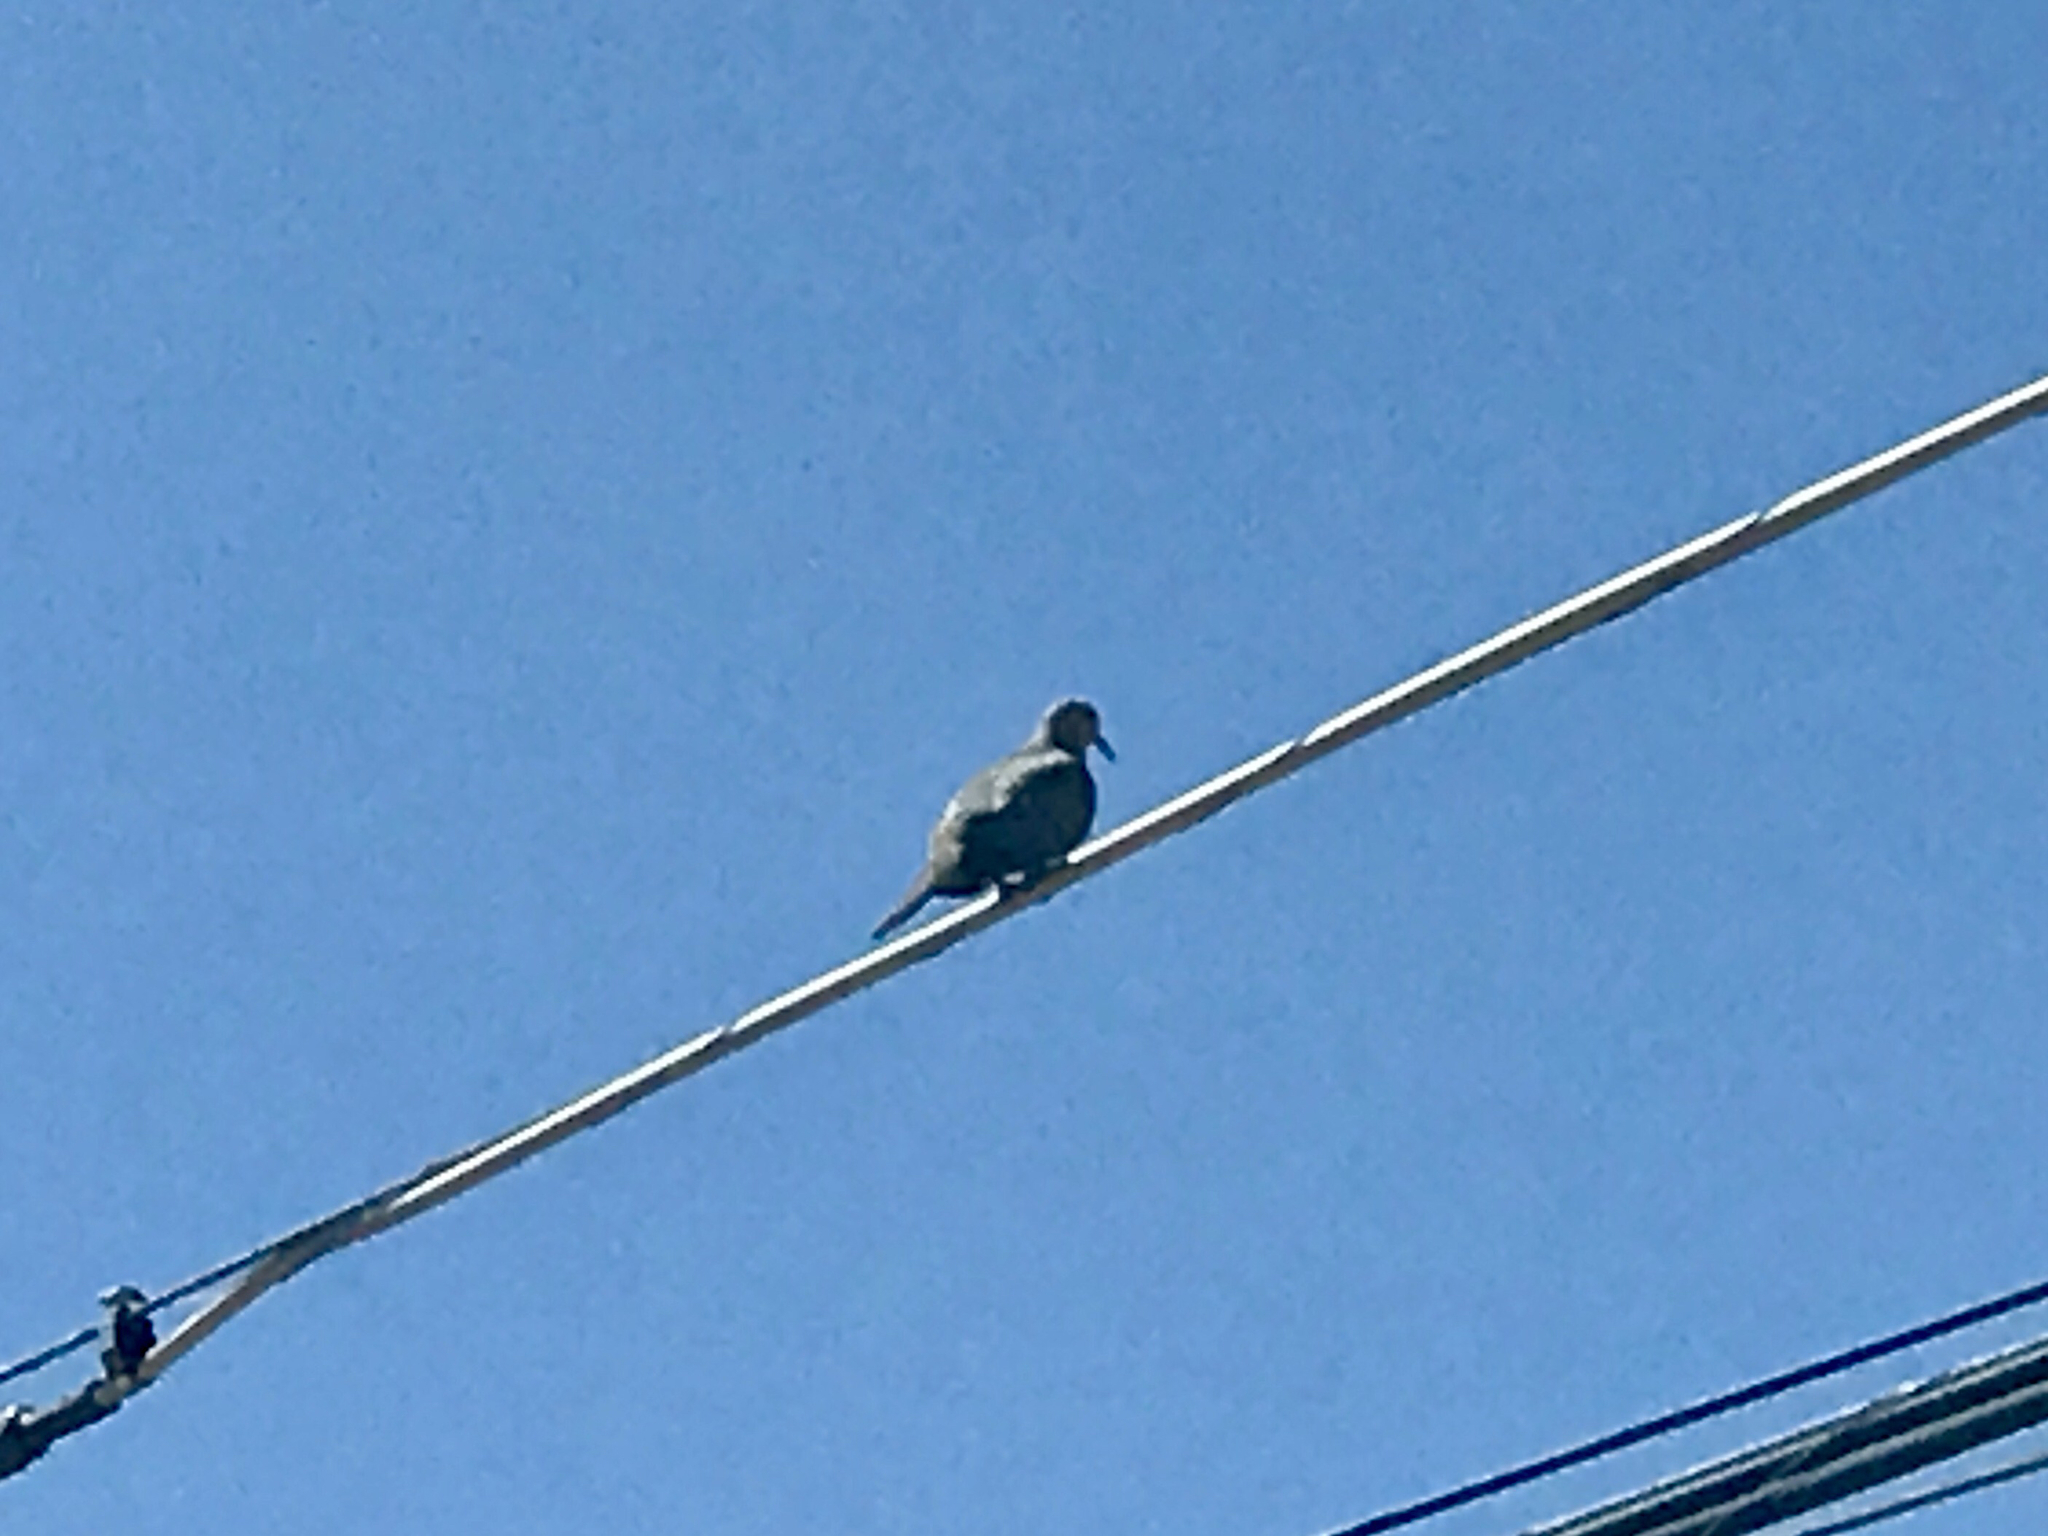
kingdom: Animalia
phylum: Chordata
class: Aves
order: Columbiformes
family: Columbidae
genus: Zenaida
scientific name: Zenaida macroura
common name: Mourning dove
